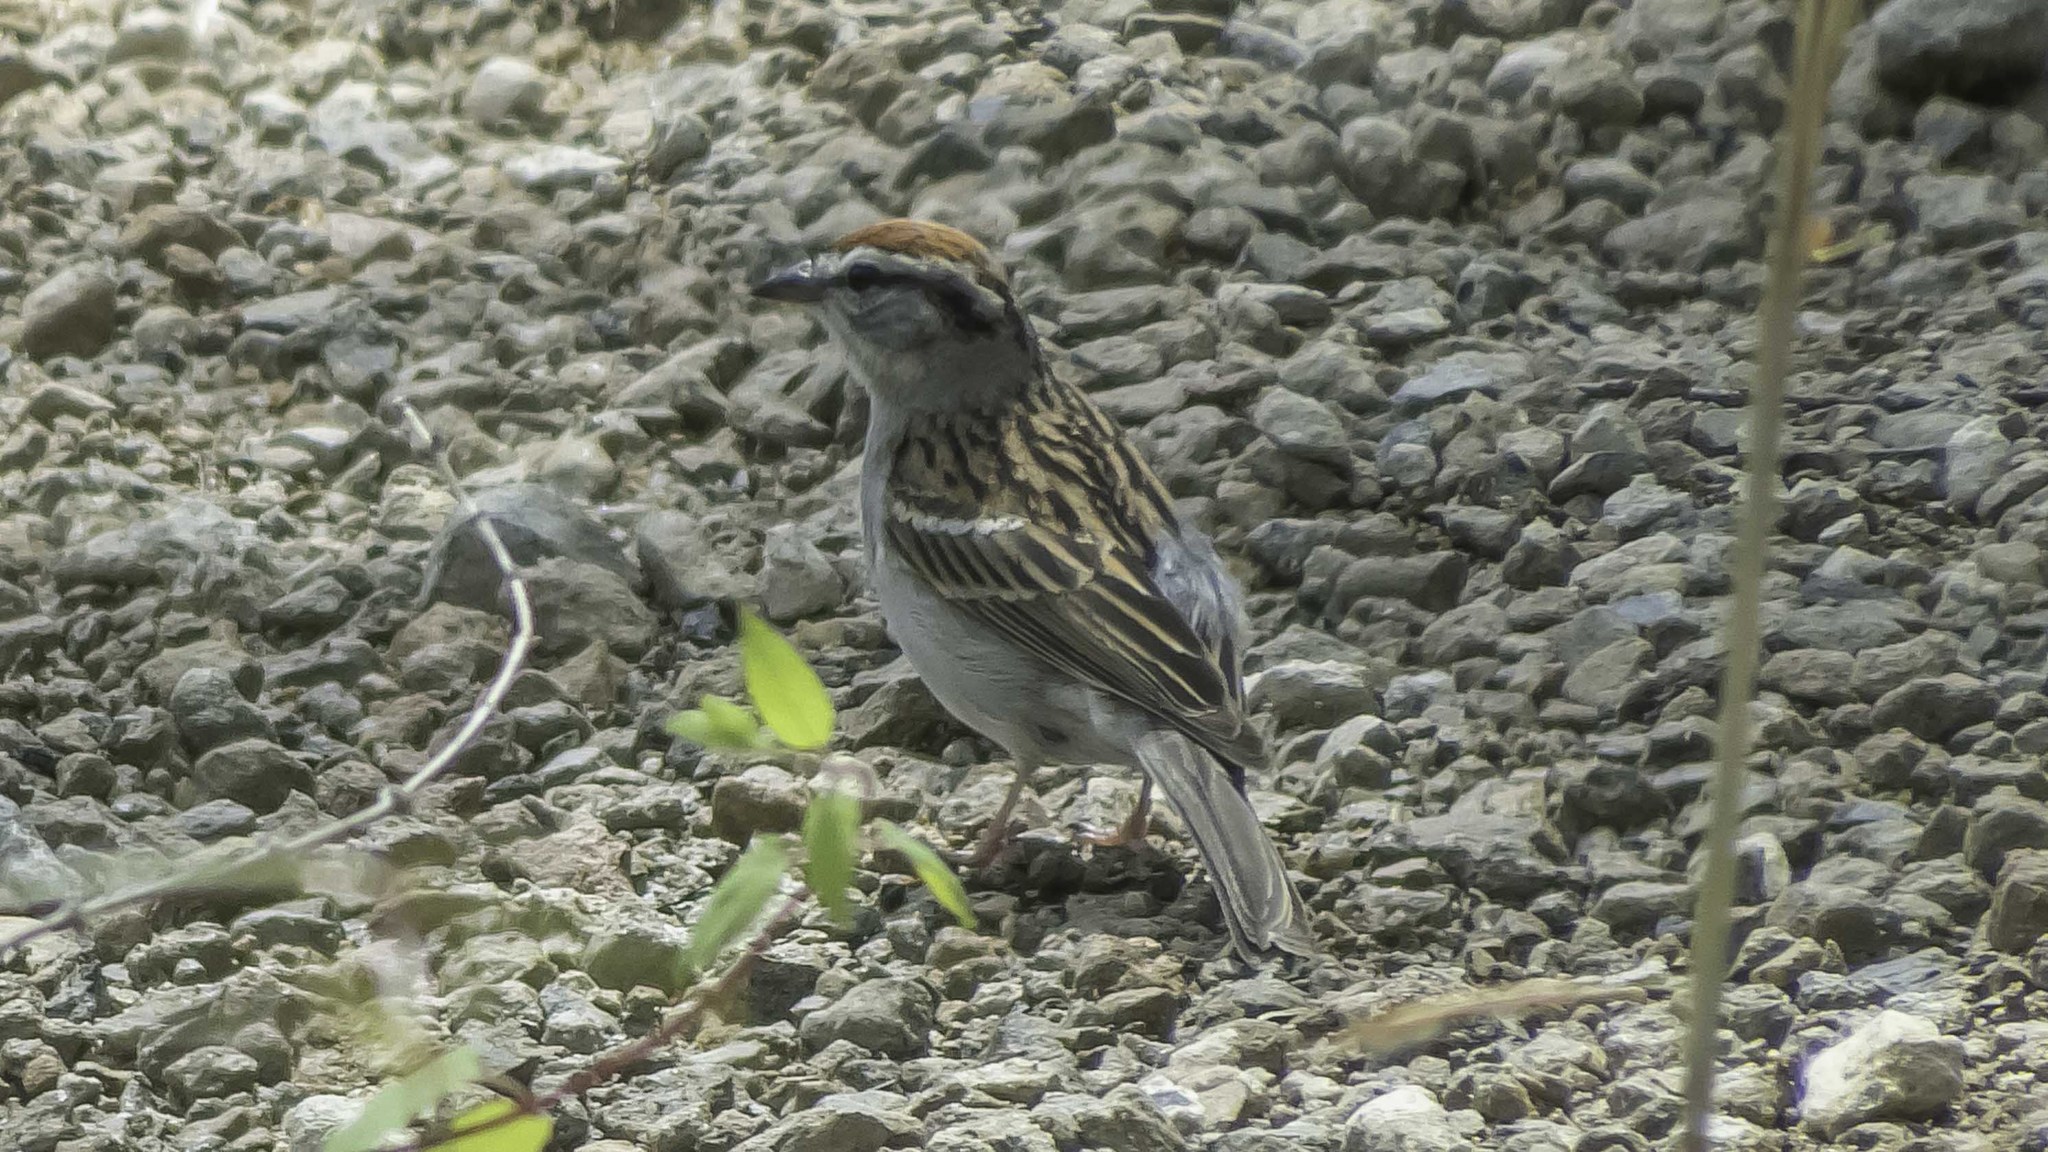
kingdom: Animalia
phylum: Chordata
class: Aves
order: Passeriformes
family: Passerellidae
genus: Spizella
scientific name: Spizella passerina
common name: Chipping sparrow
